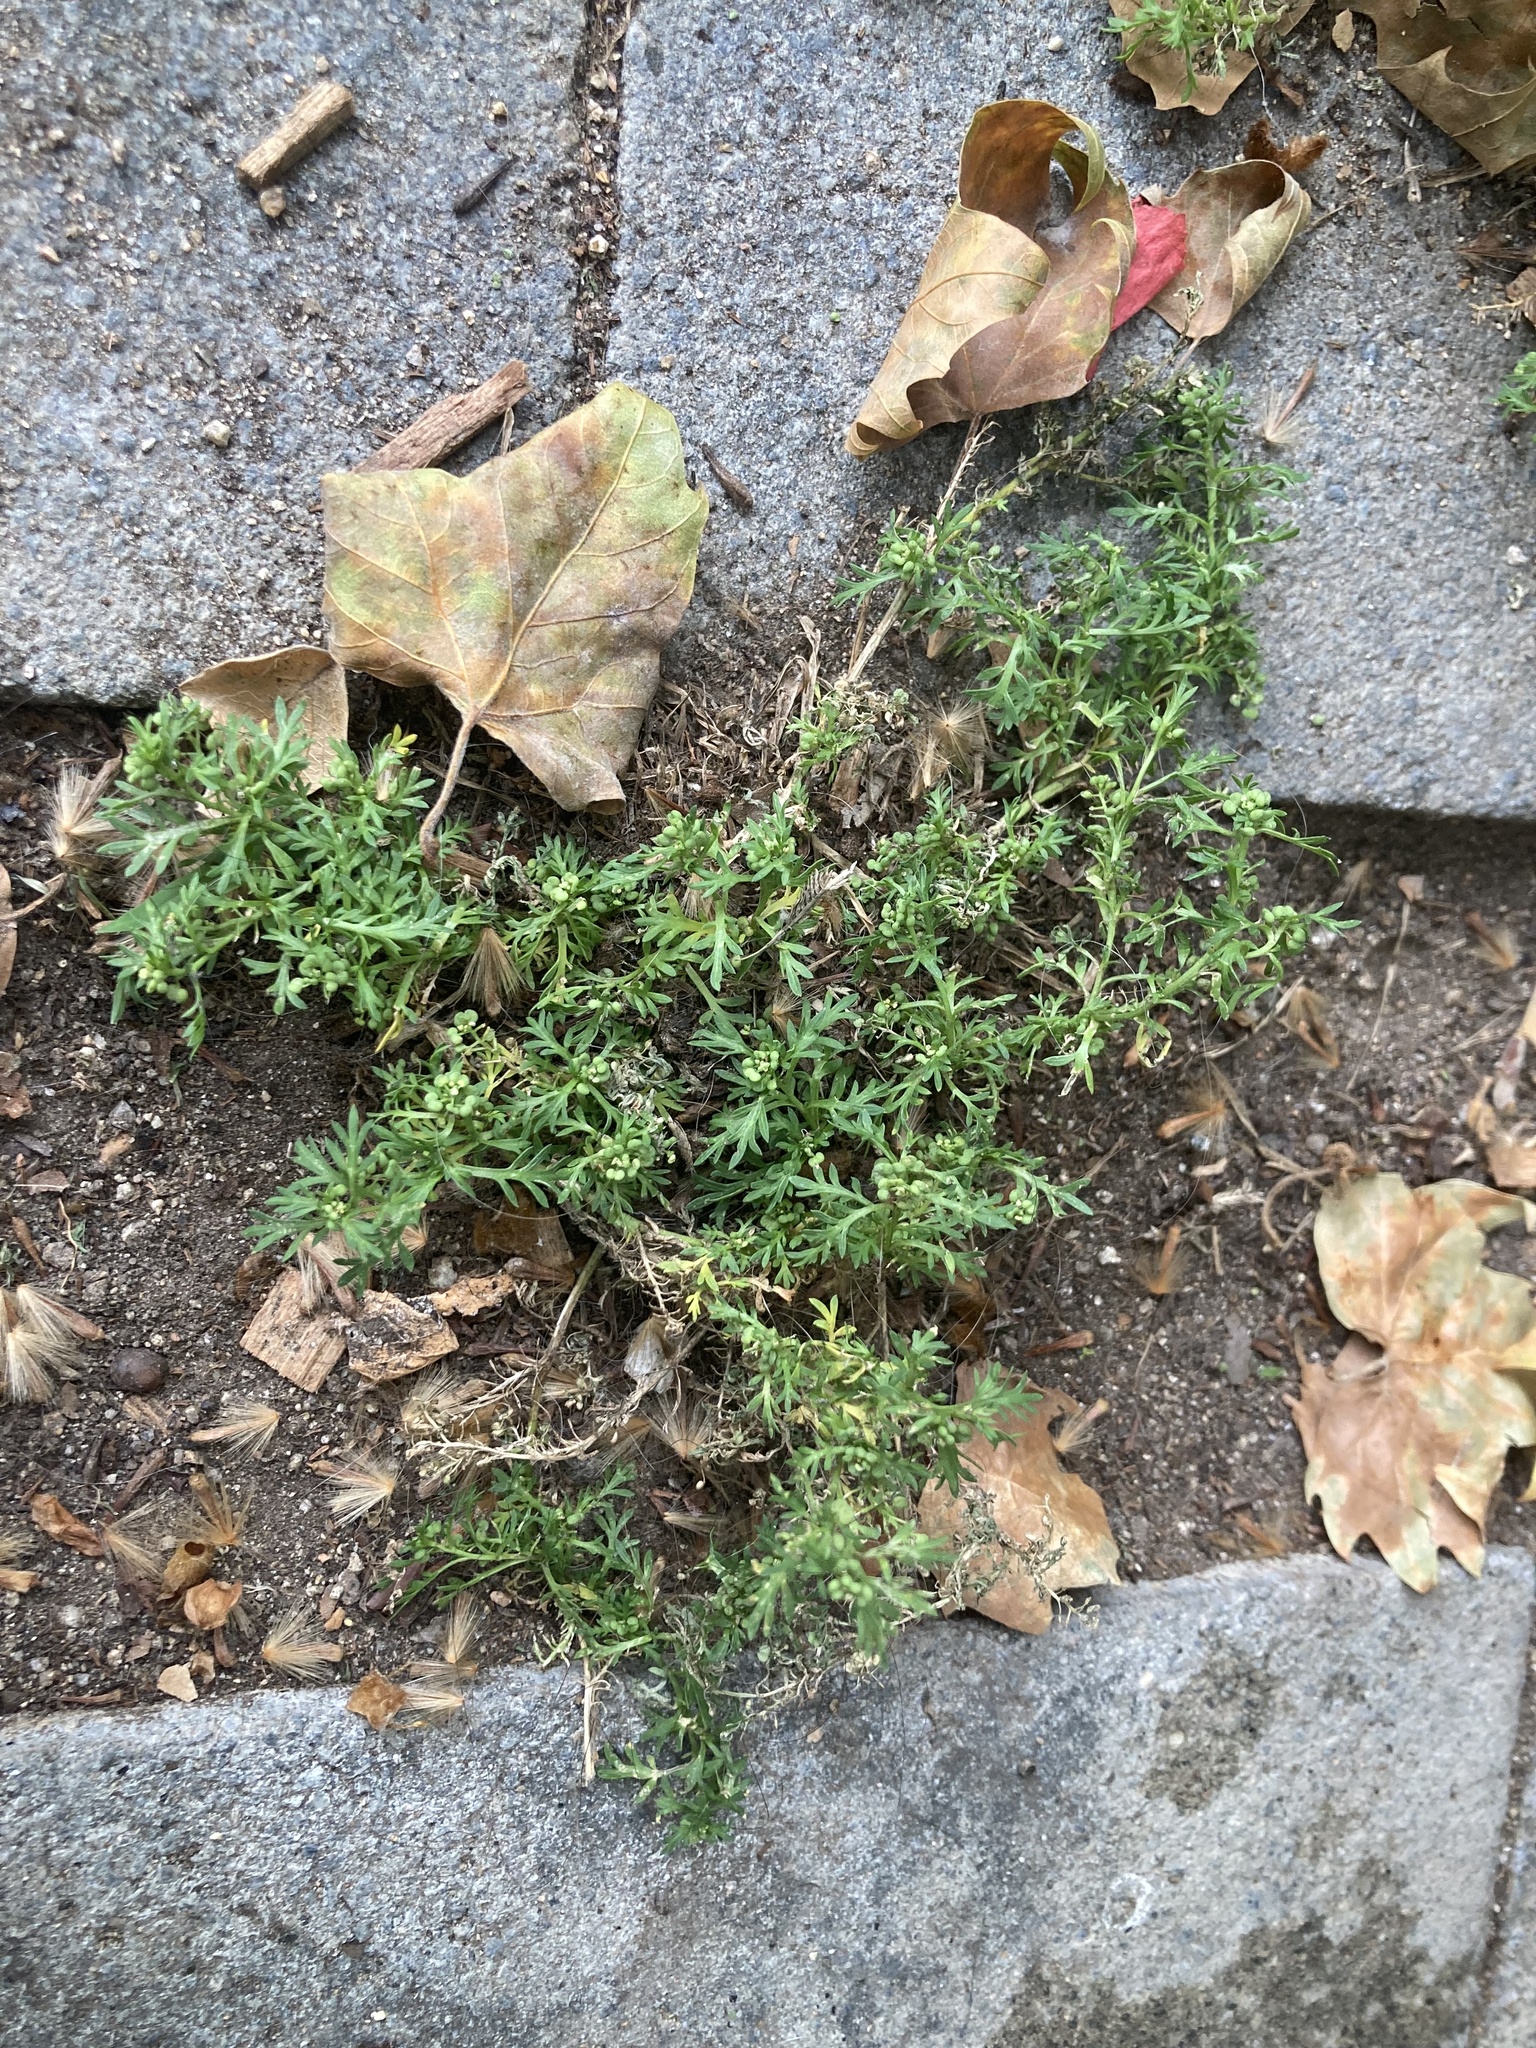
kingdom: Plantae
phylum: Tracheophyta
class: Magnoliopsida
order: Brassicales
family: Brassicaceae
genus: Lepidium
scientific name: Lepidium didymum
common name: Lesser swinecress
